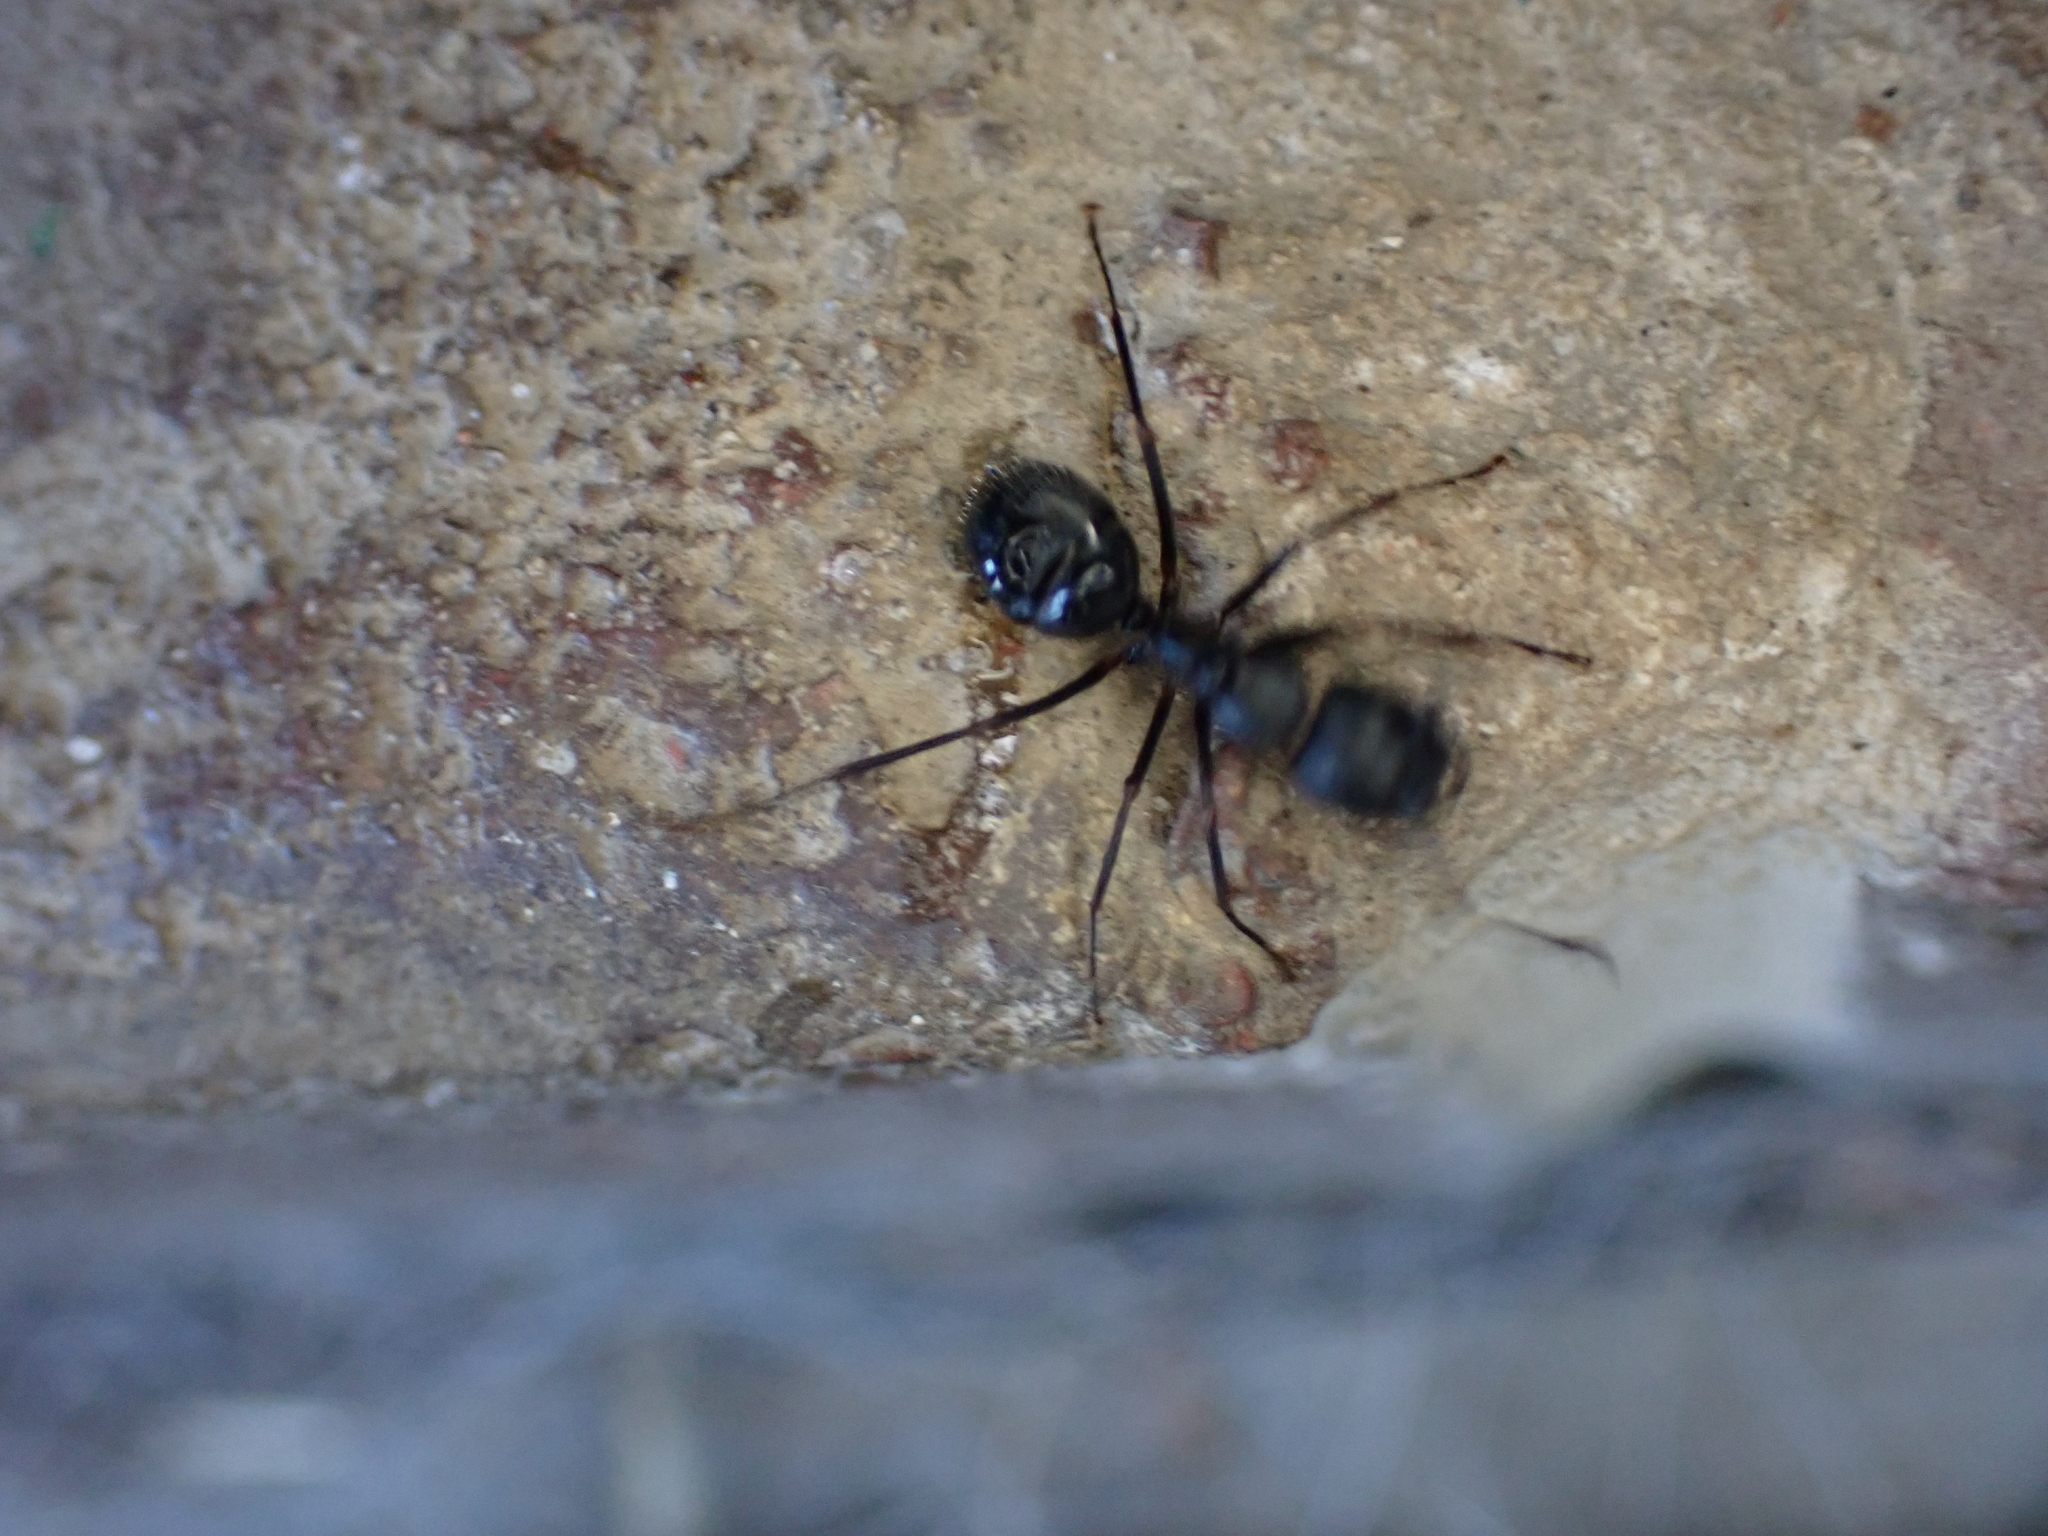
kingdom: Animalia
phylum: Arthropoda
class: Insecta
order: Hymenoptera
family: Formicidae
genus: Camponotus
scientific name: Camponotus pennsylvanicus
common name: Black carpenter ant
